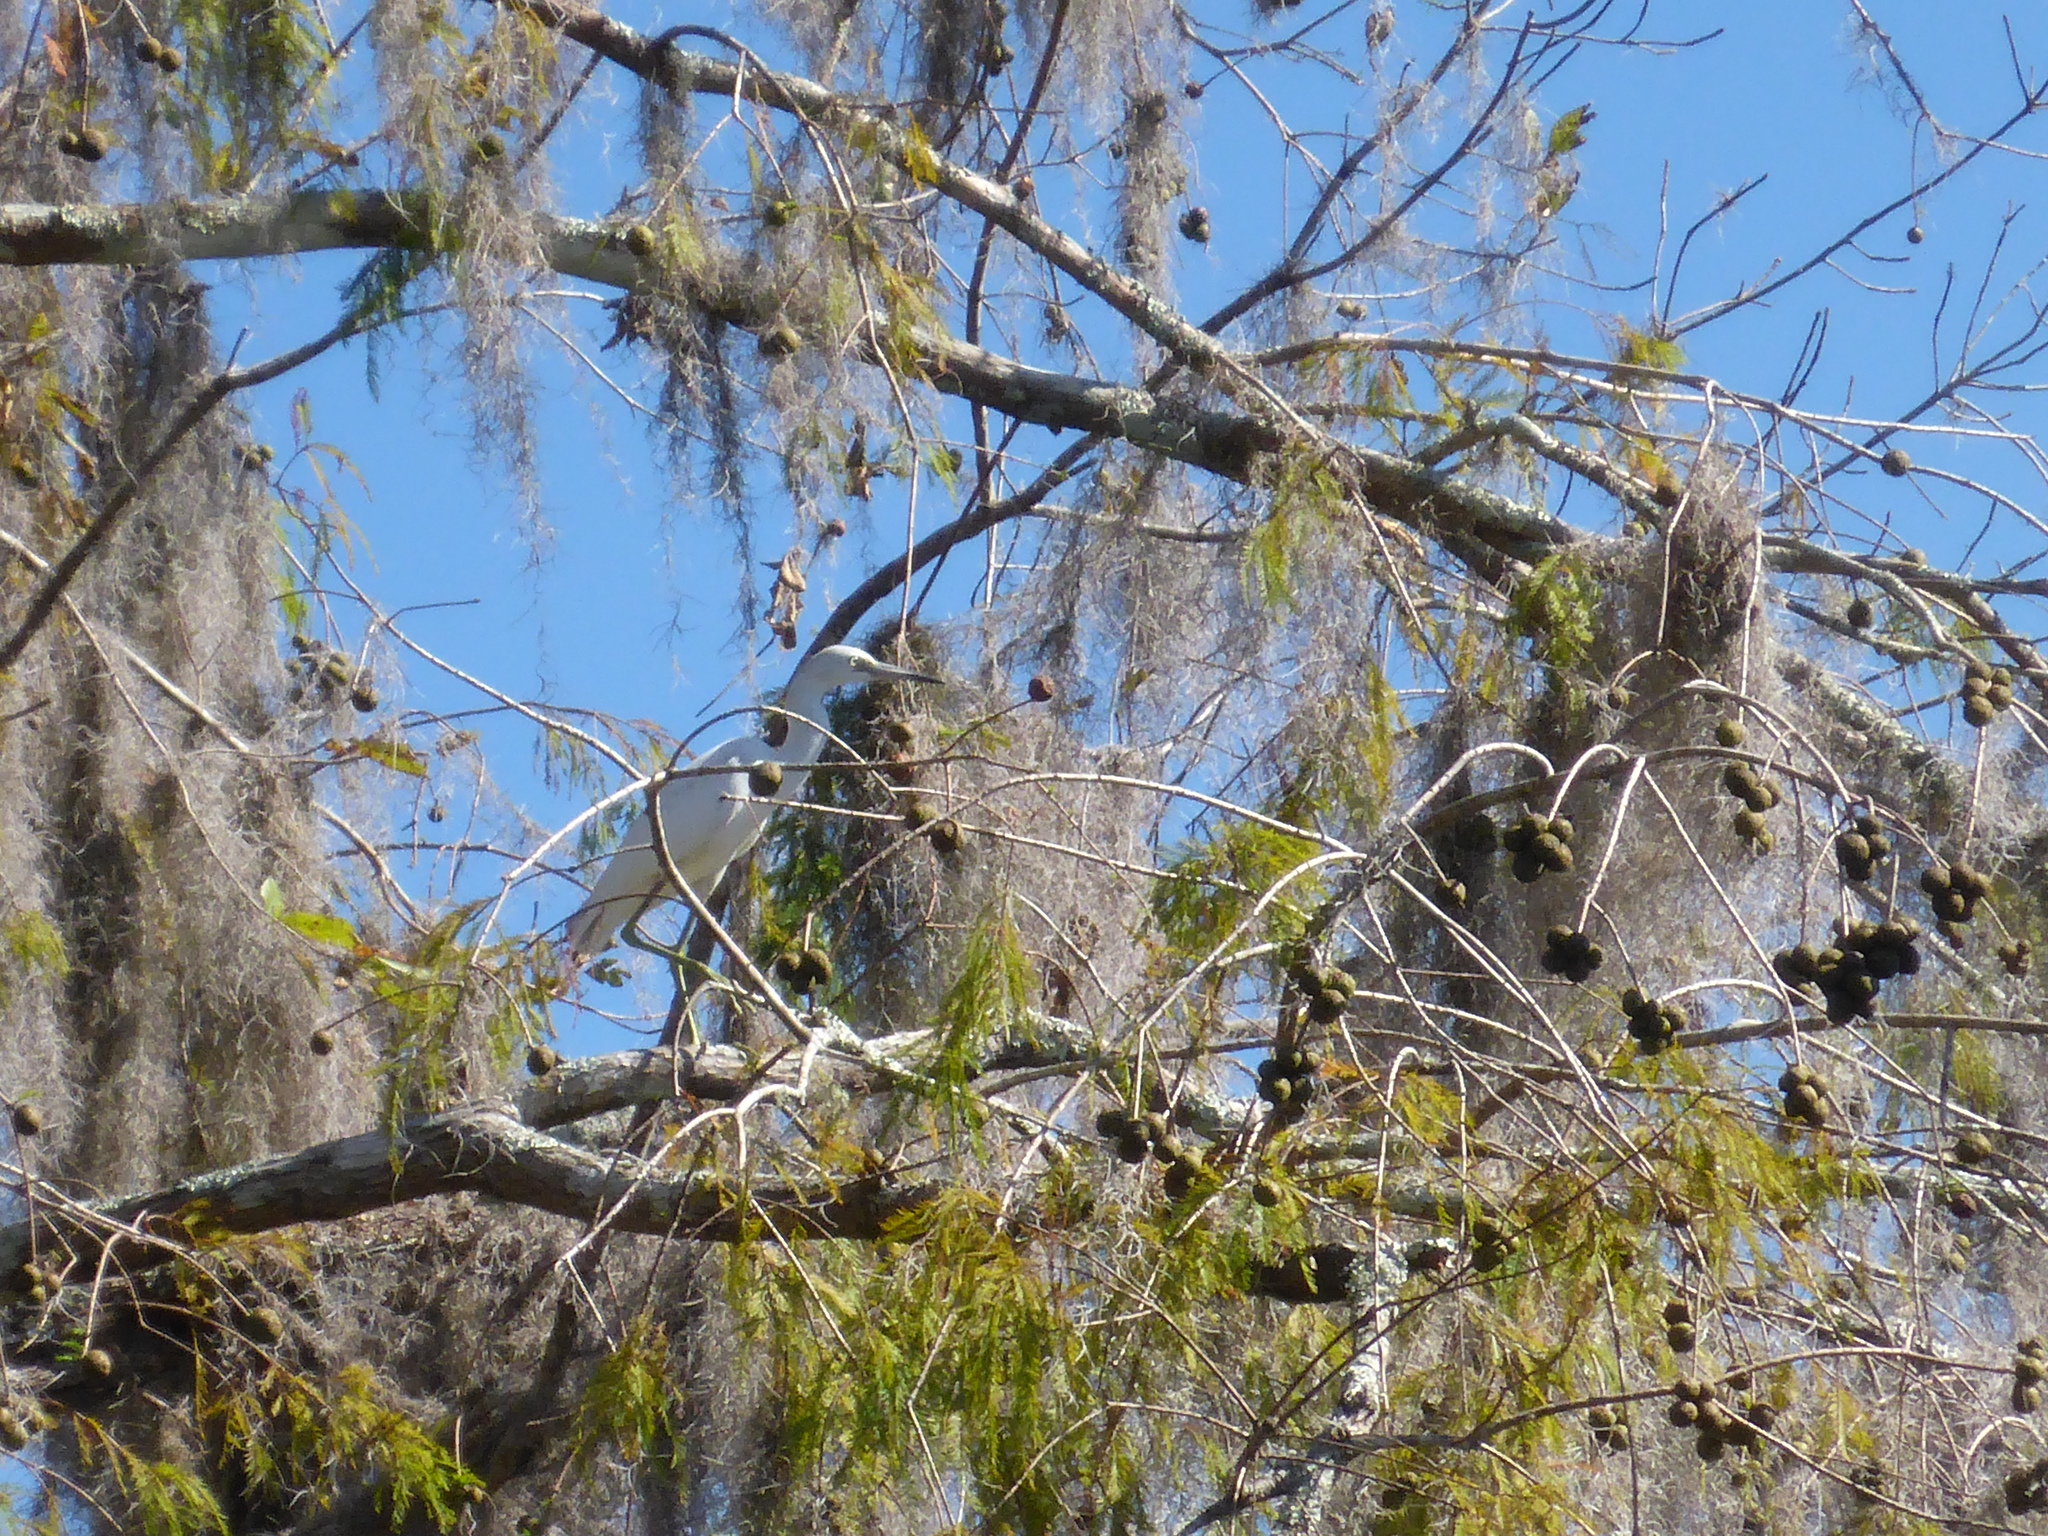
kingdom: Animalia
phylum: Chordata
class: Aves
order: Pelecaniformes
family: Ardeidae
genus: Ardea
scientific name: Ardea alba
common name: Great egret
